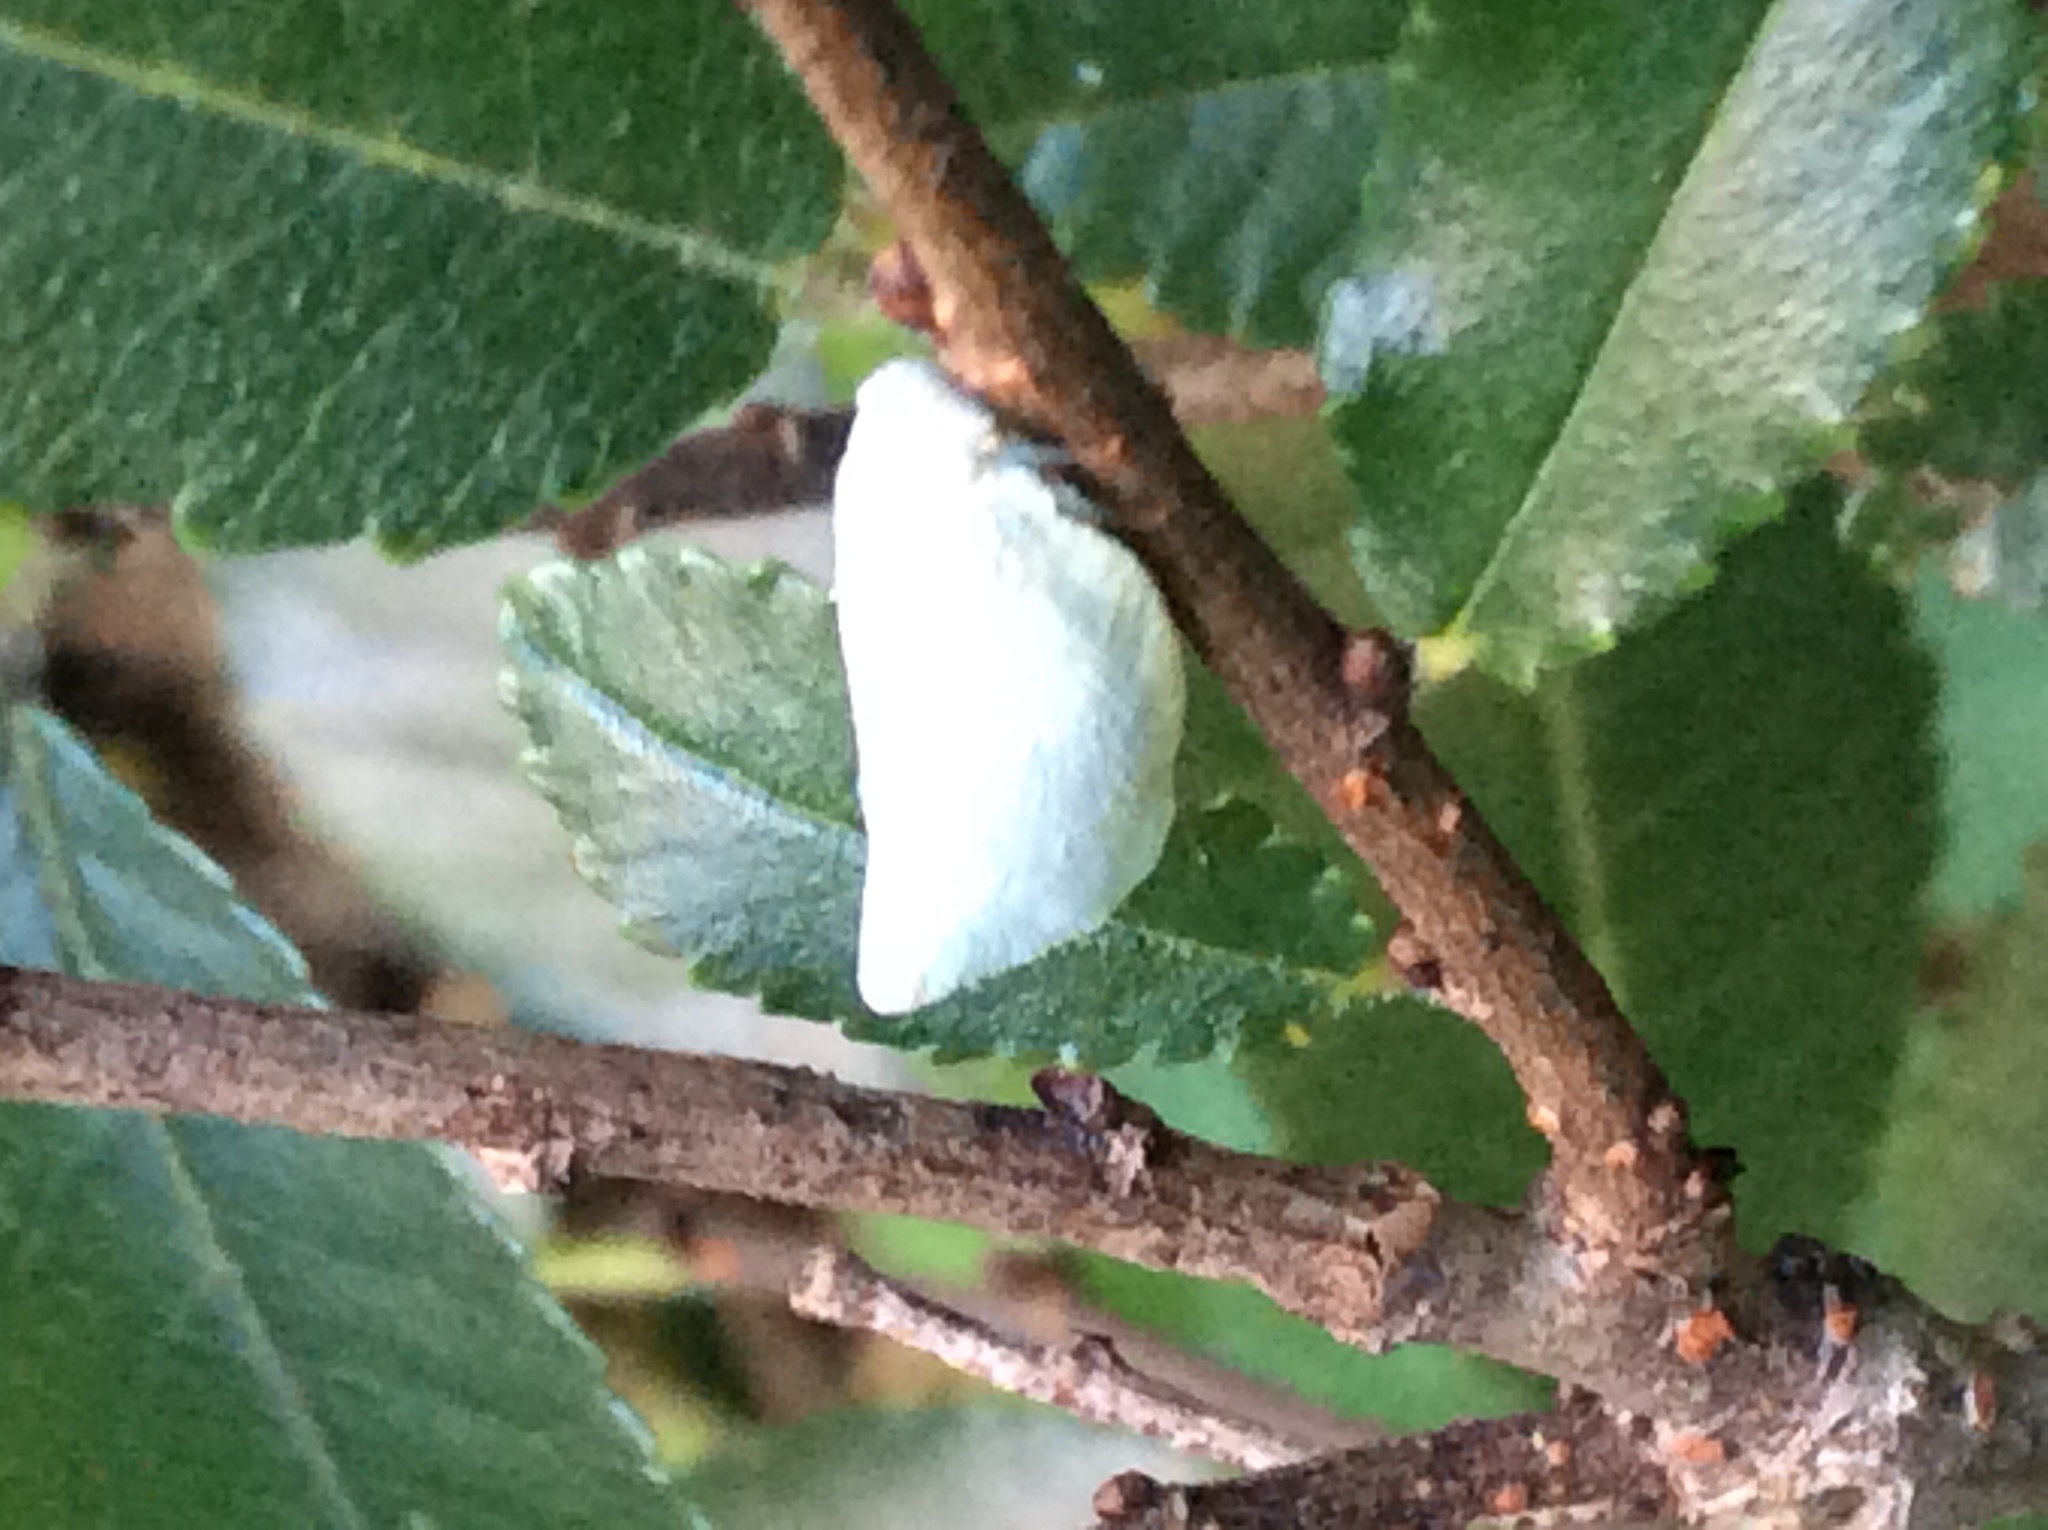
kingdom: Animalia
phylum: Arthropoda
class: Insecta
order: Hemiptera
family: Flatidae
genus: Flatormenis
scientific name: Flatormenis proxima
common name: Northern flatid planthopper
